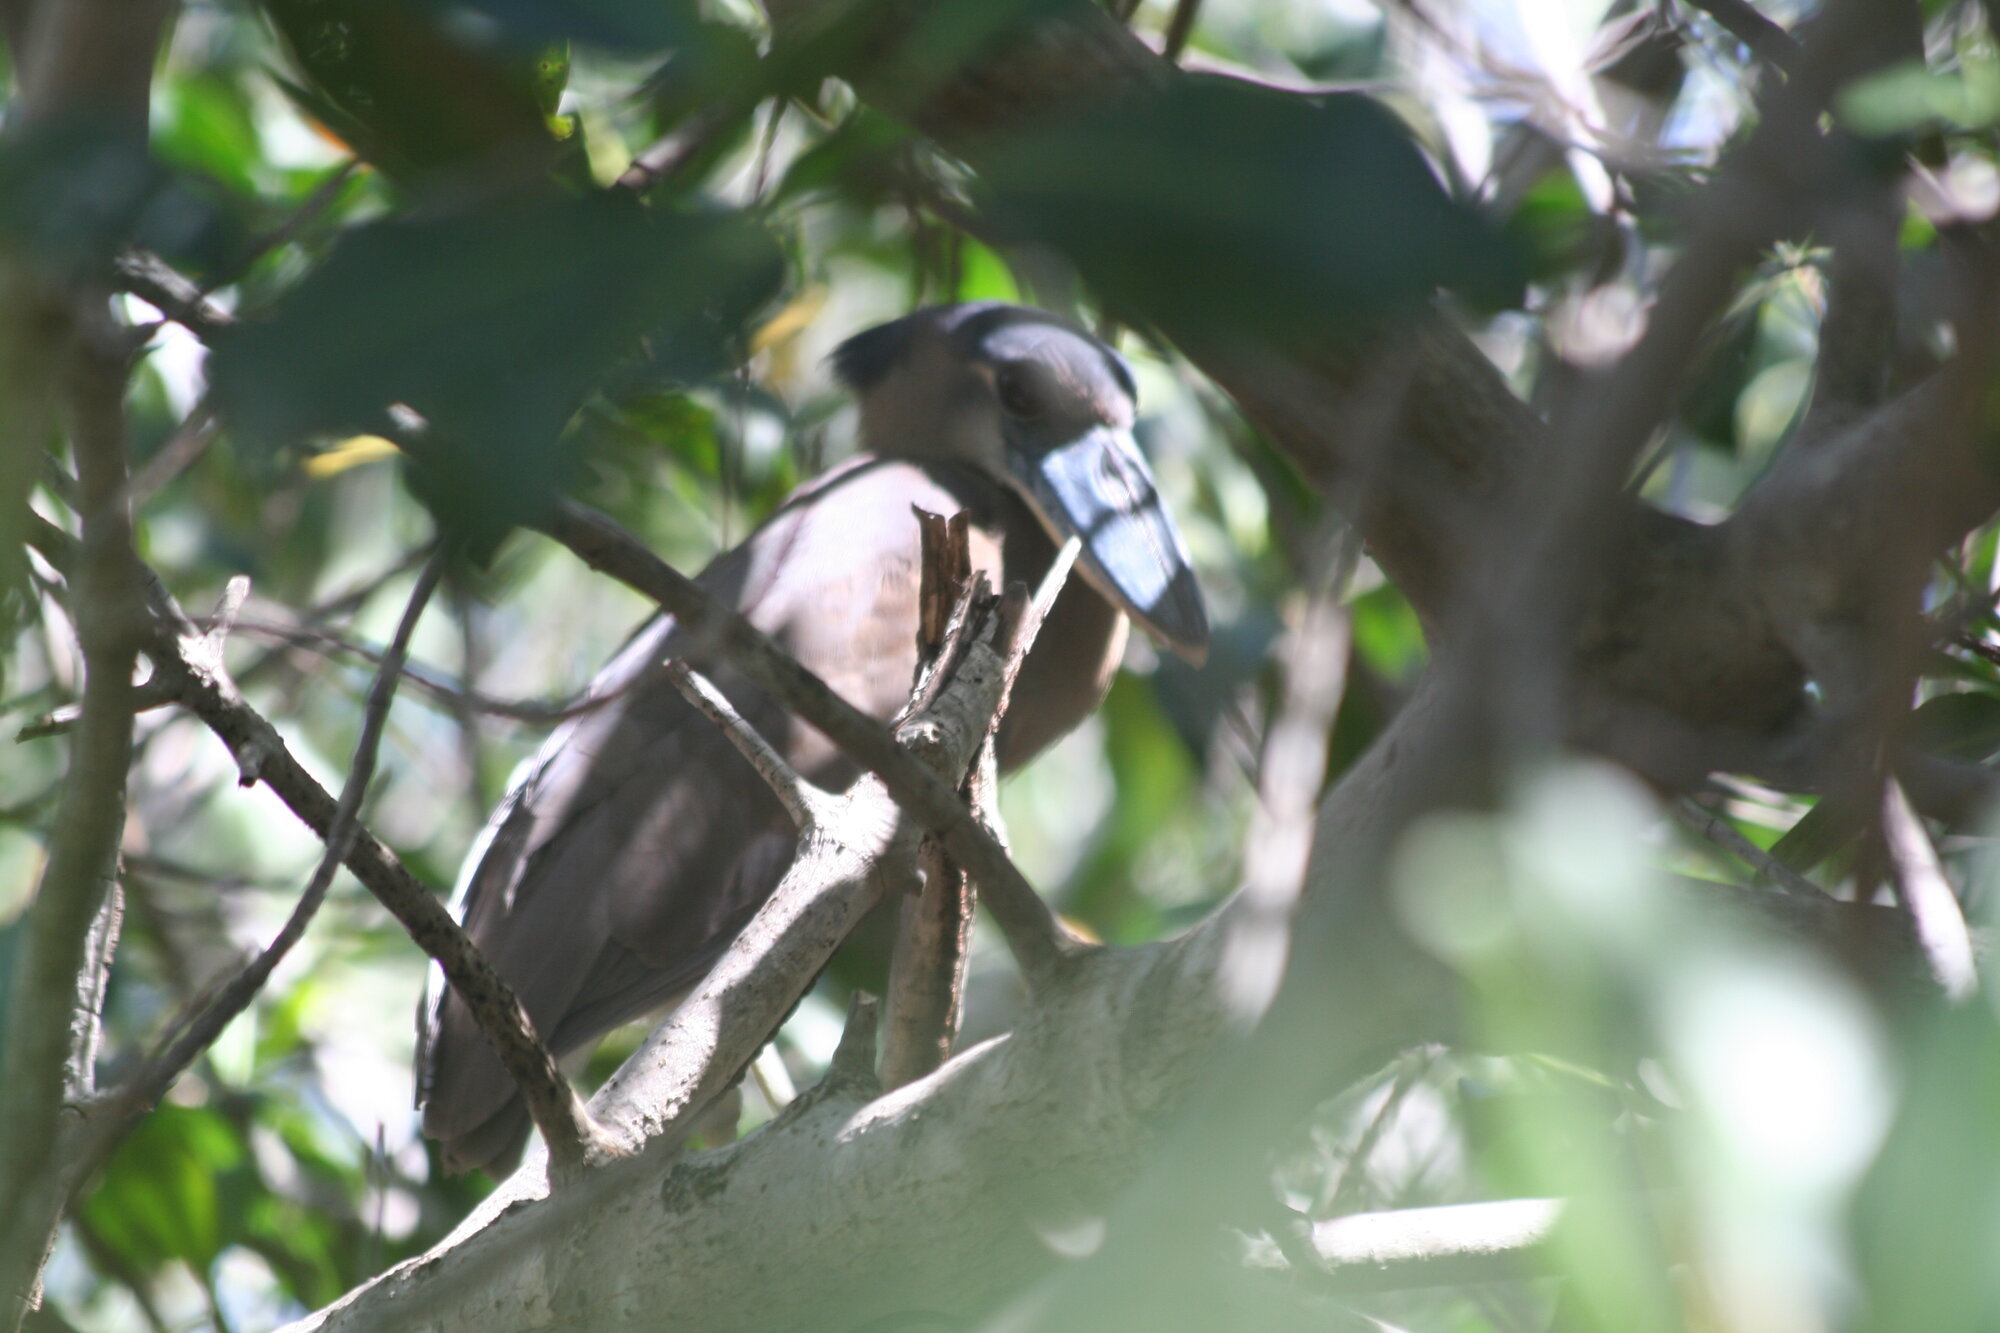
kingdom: Animalia
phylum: Chordata
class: Aves
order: Pelecaniformes
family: Ardeidae
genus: Cochlearius
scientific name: Cochlearius cochlearius
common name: Boat-billed heron
